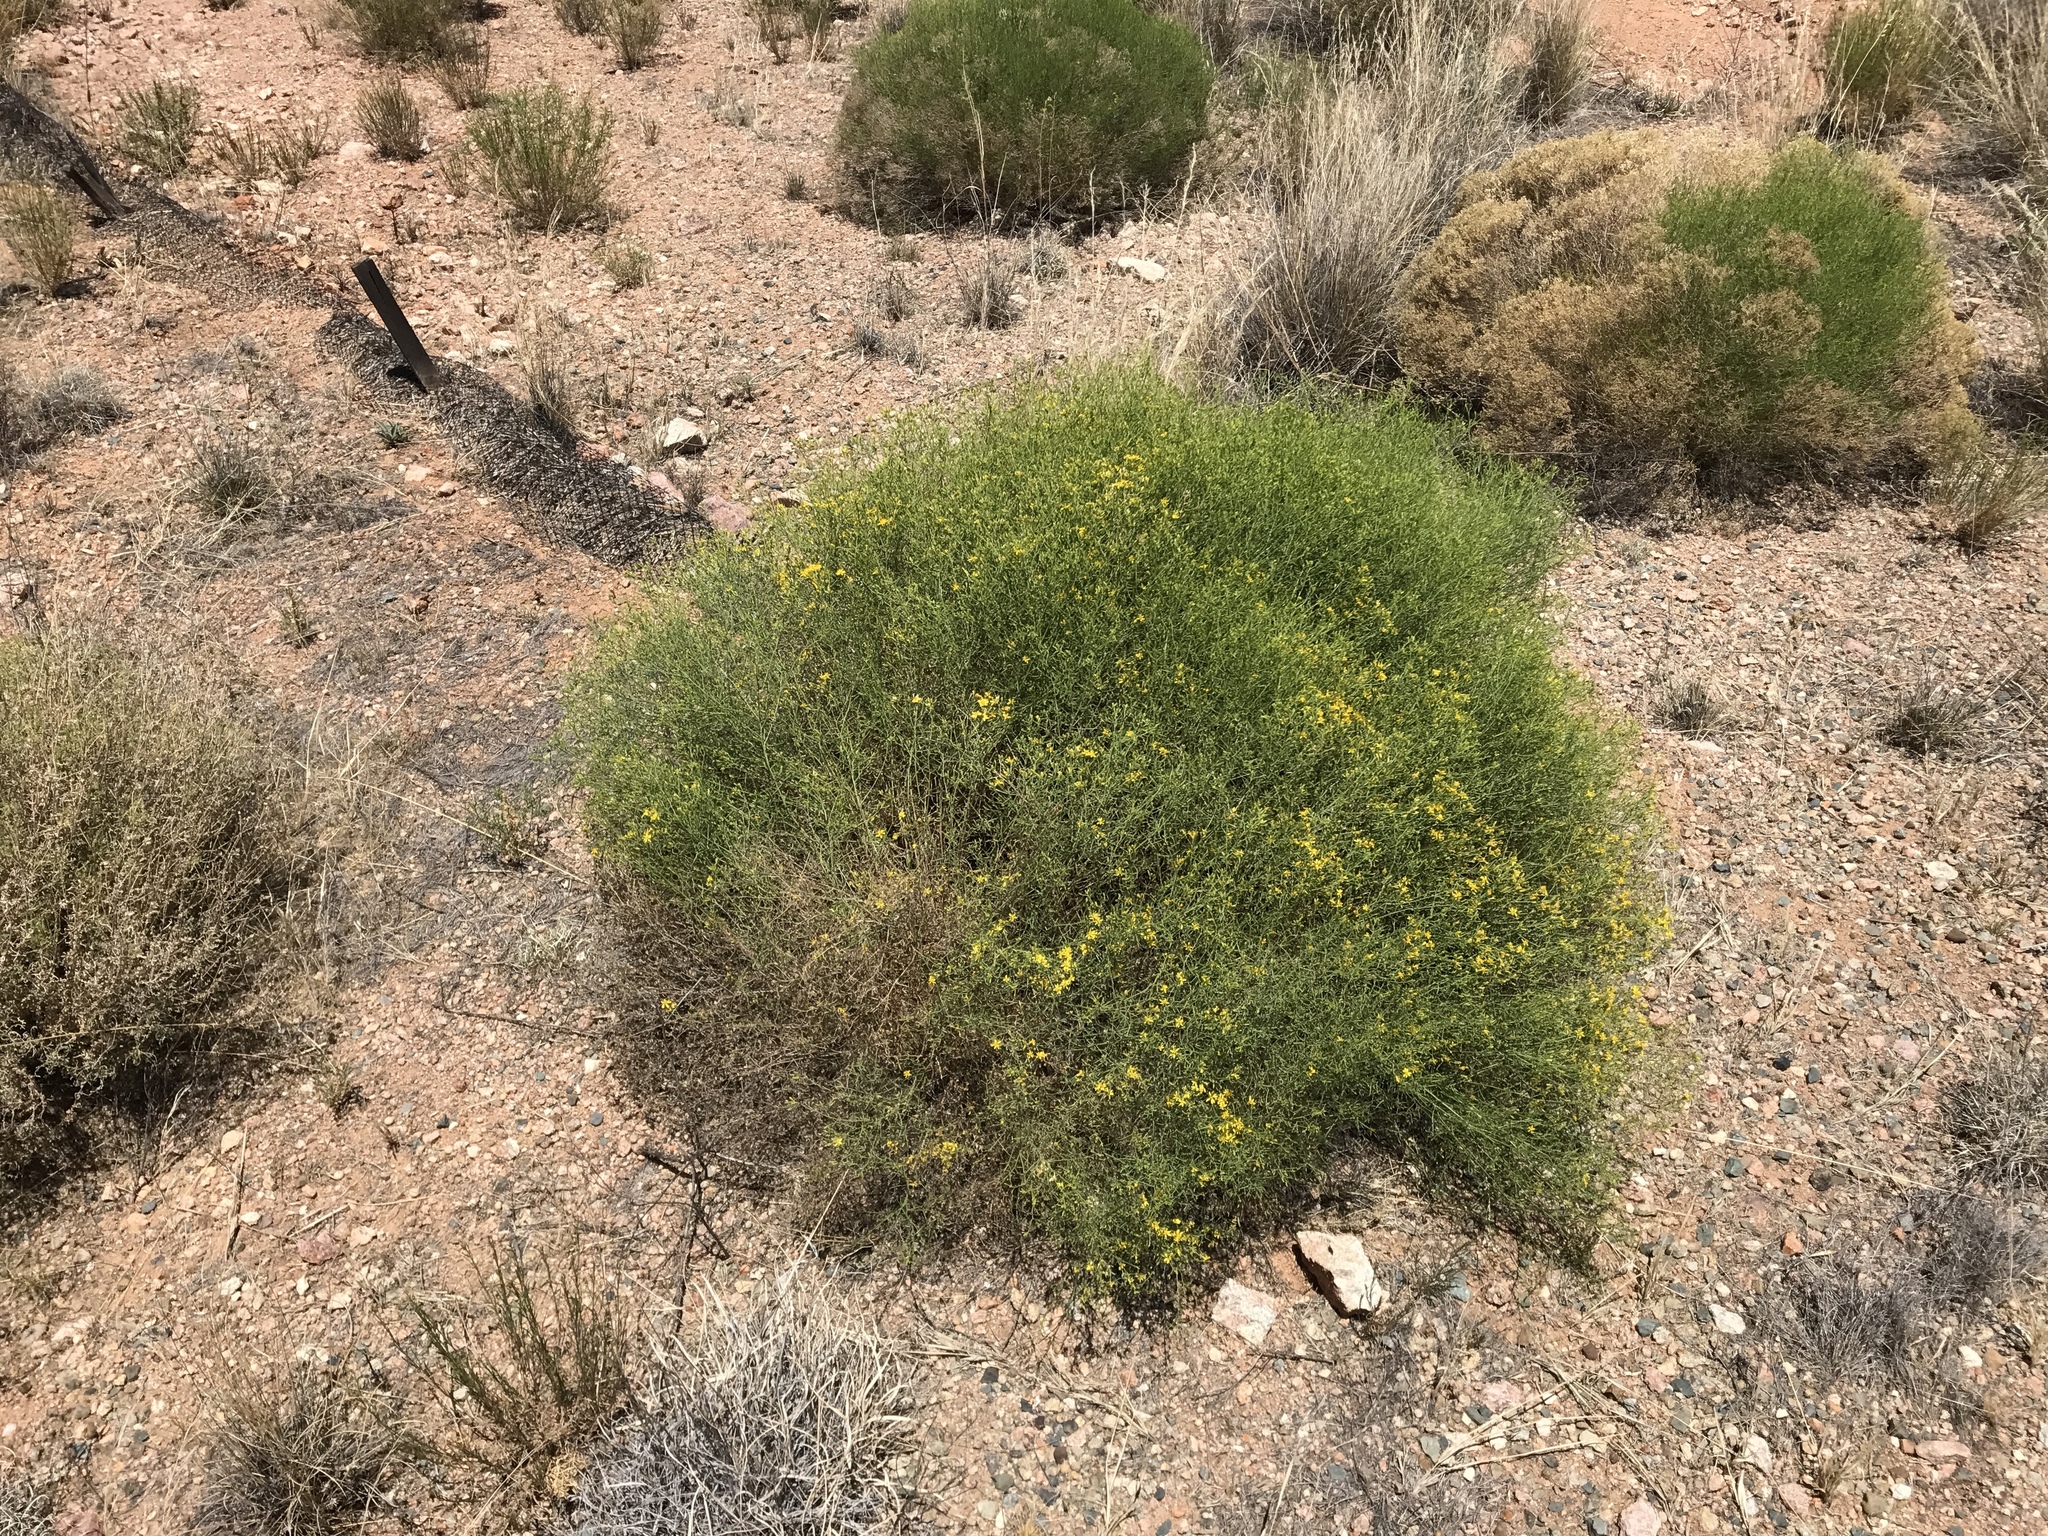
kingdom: Plantae
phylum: Tracheophyta
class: Magnoliopsida
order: Asterales
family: Asteraceae
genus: Gutierrezia
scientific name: Gutierrezia sarothrae
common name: Broom snakeweed
